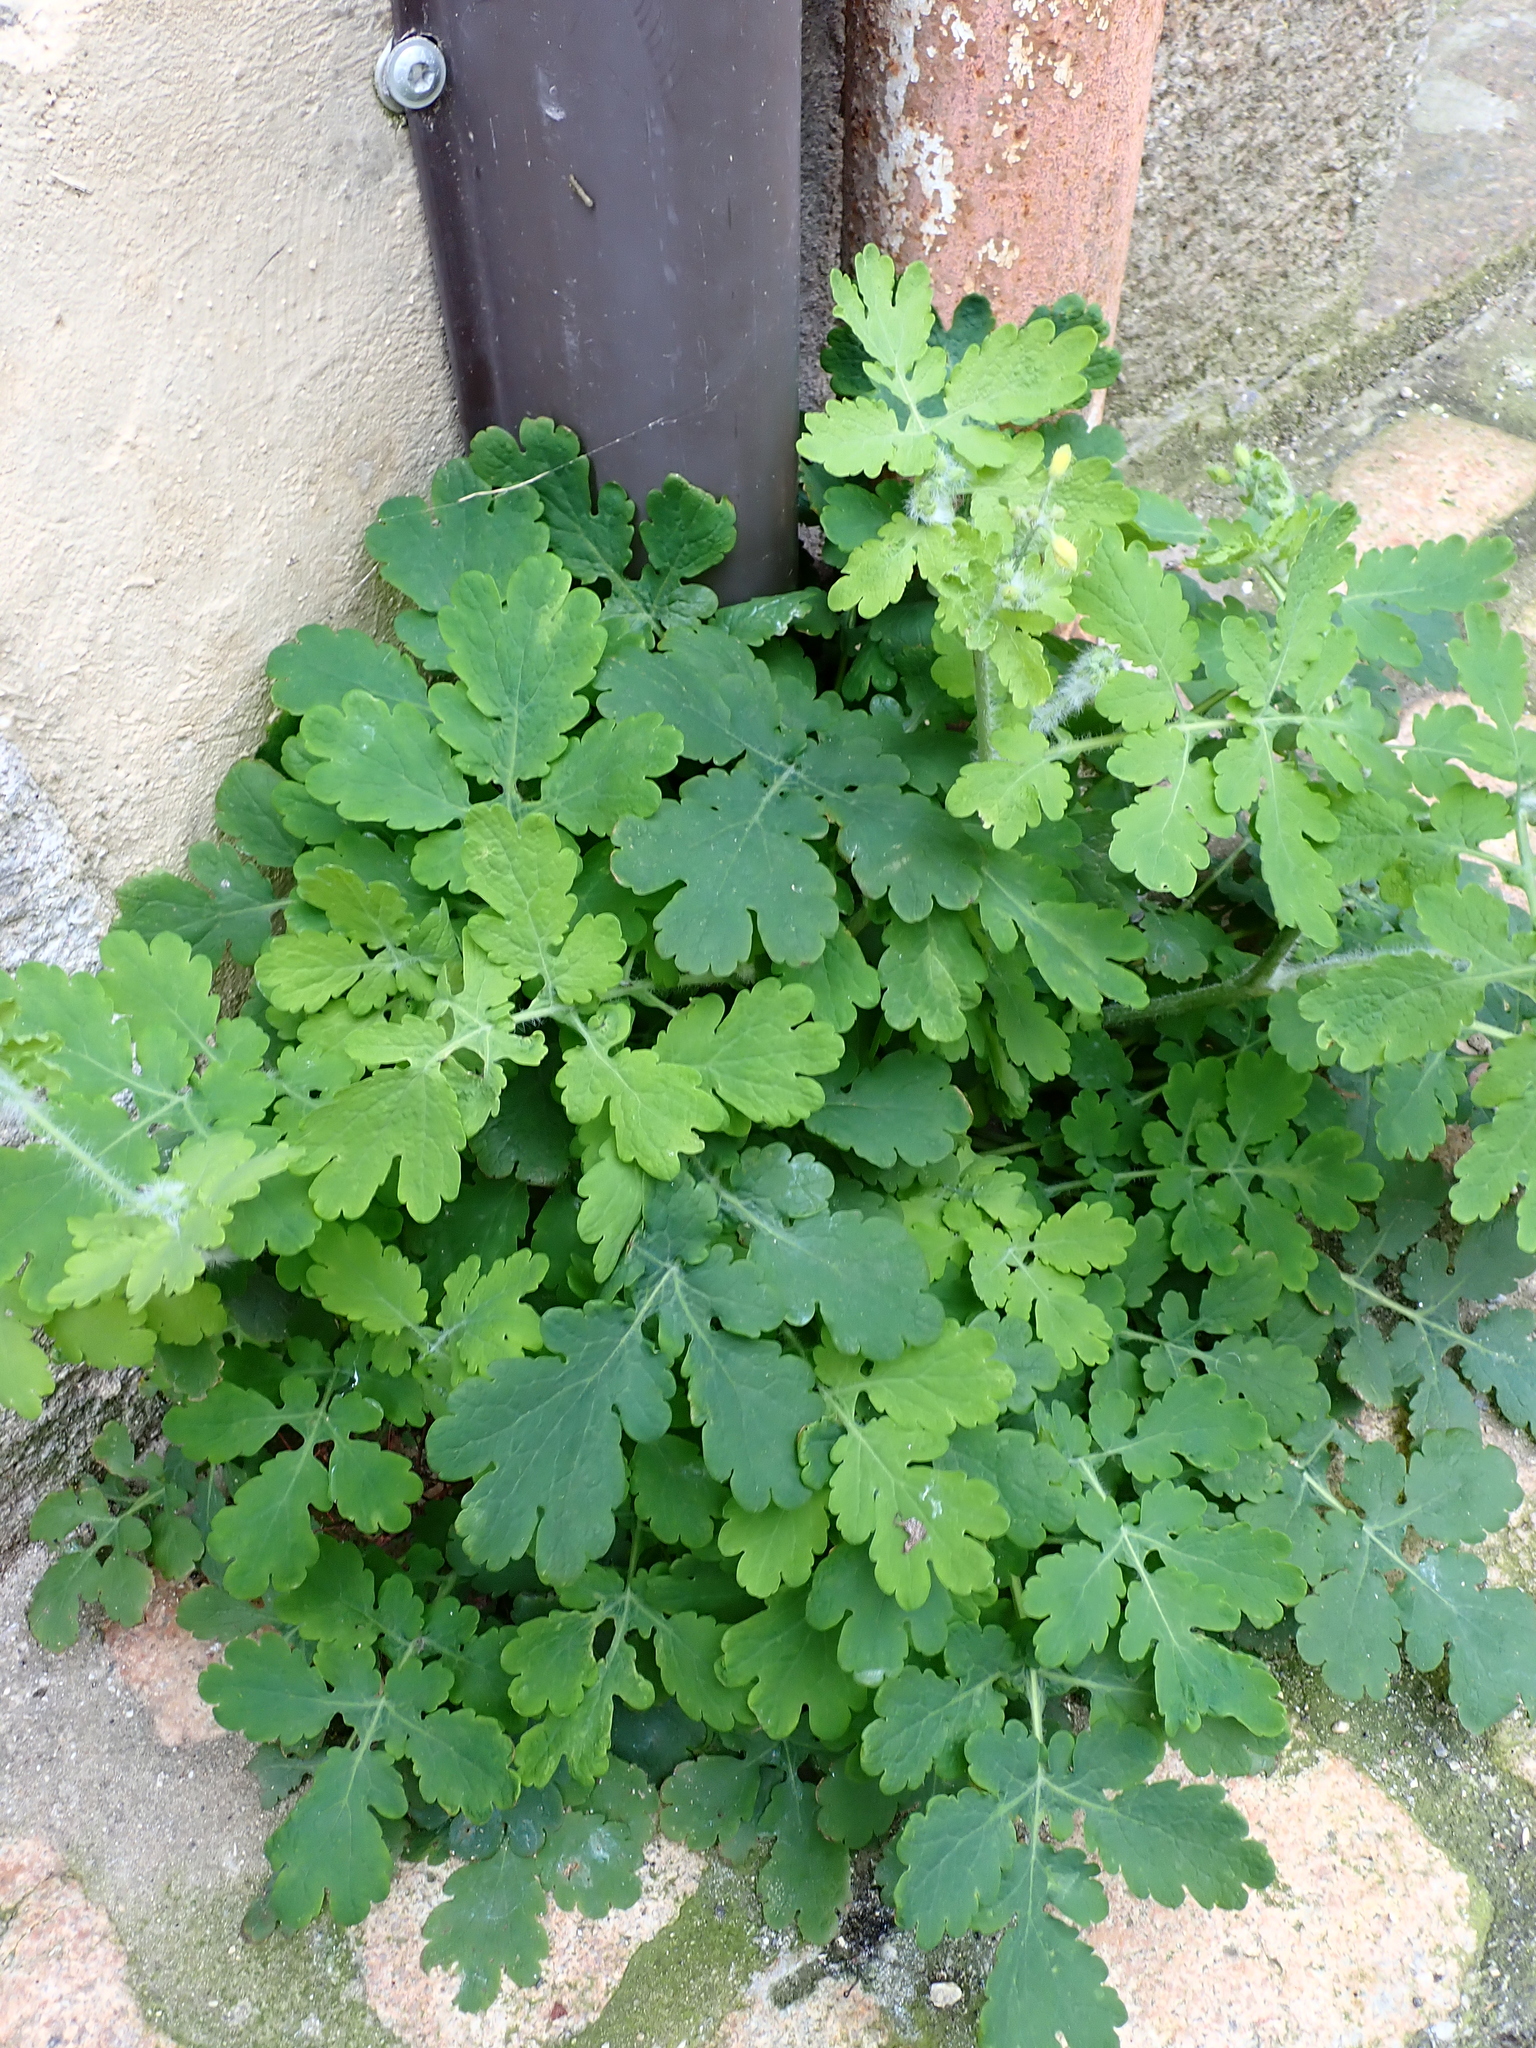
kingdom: Plantae
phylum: Tracheophyta
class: Magnoliopsida
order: Ranunculales
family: Papaveraceae
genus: Chelidonium
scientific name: Chelidonium majus
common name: Greater celandine
